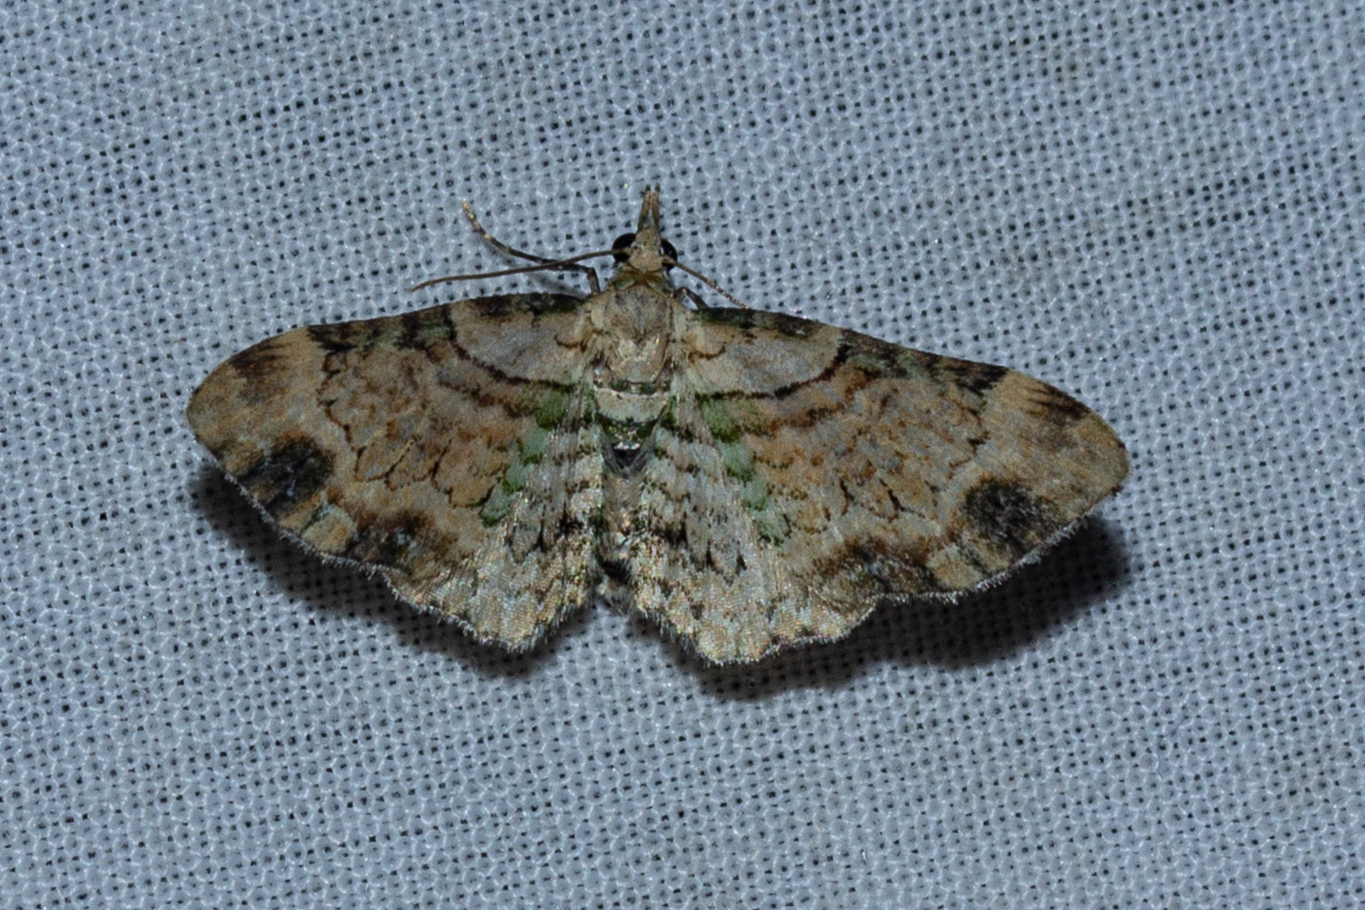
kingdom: Animalia
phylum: Arthropoda
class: Insecta
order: Lepidoptera
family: Geometridae
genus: Chloroclystis
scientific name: Chloroclystis
